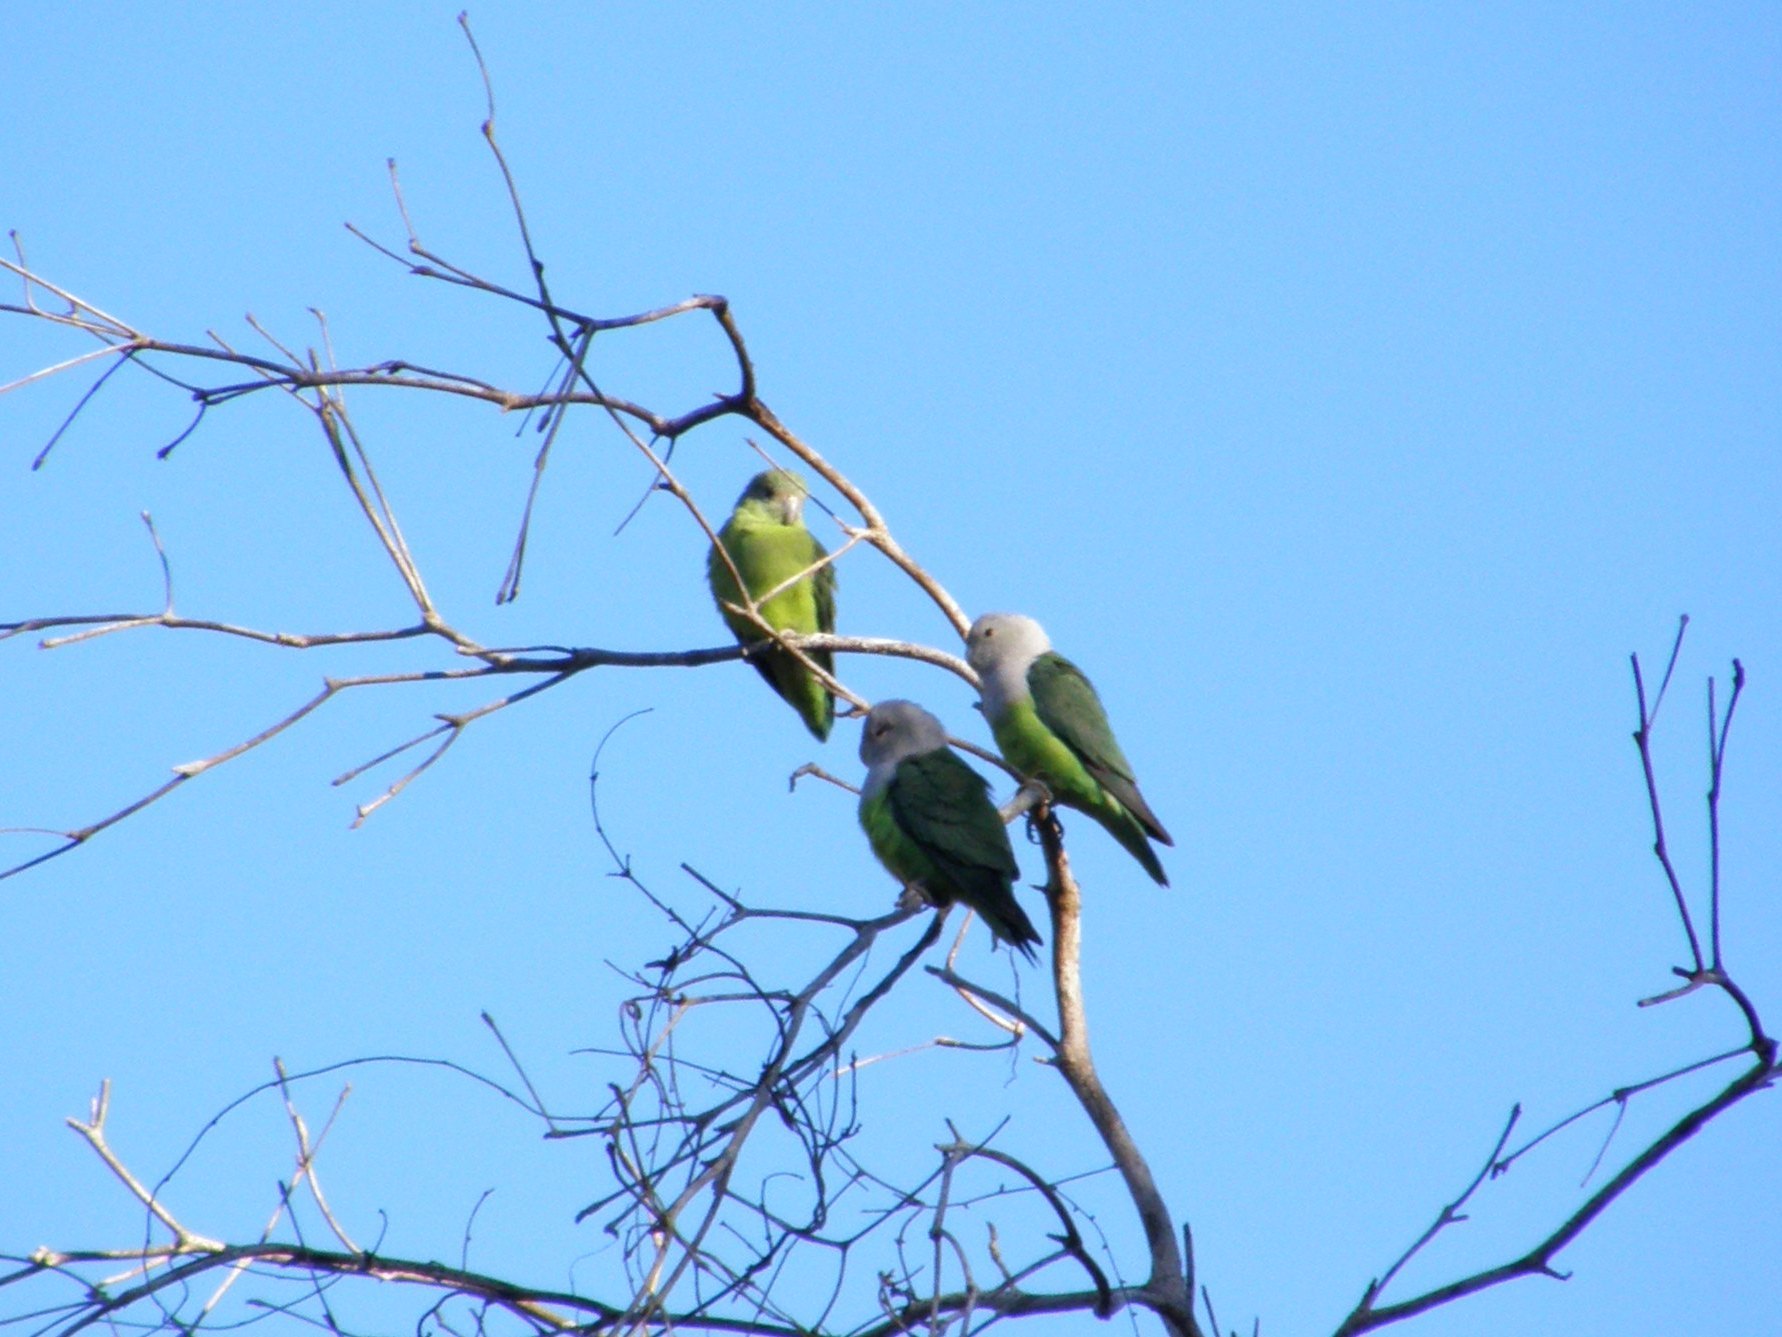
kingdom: Animalia
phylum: Chordata
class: Aves
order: Psittaciformes
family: Psittacidae
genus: Agapornis
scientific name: Agapornis canus
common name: Grey-headed lovebird
